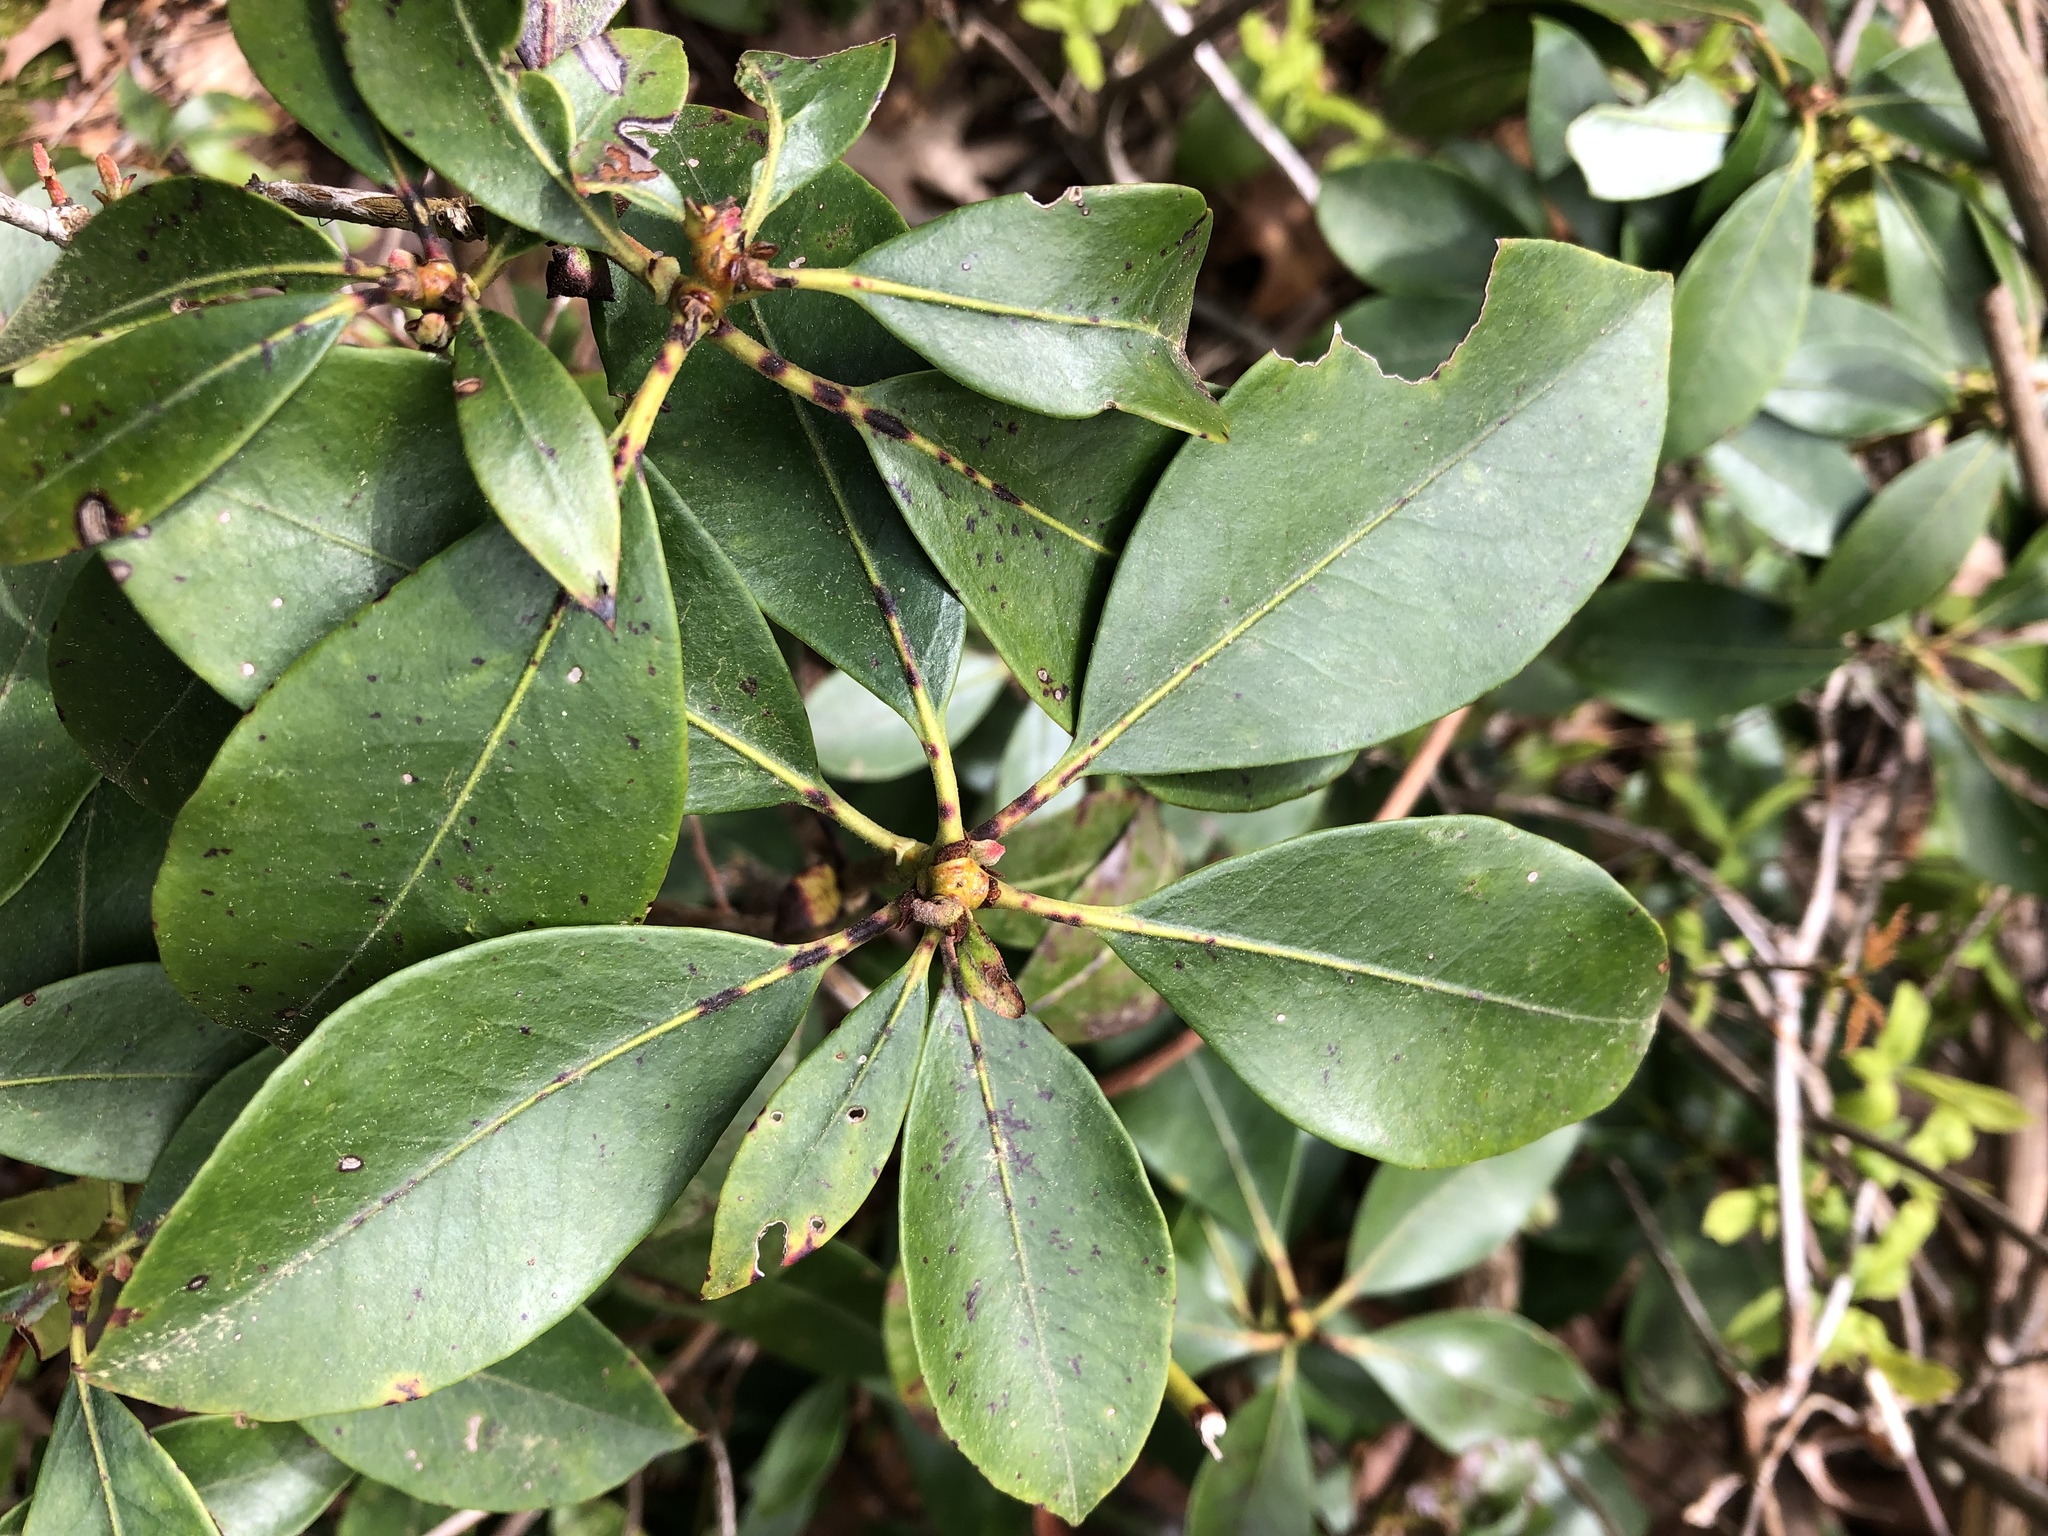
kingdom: Plantae
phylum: Tracheophyta
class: Magnoliopsida
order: Ericales
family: Ericaceae
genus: Kalmia
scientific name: Kalmia latifolia
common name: Mountain-laurel
